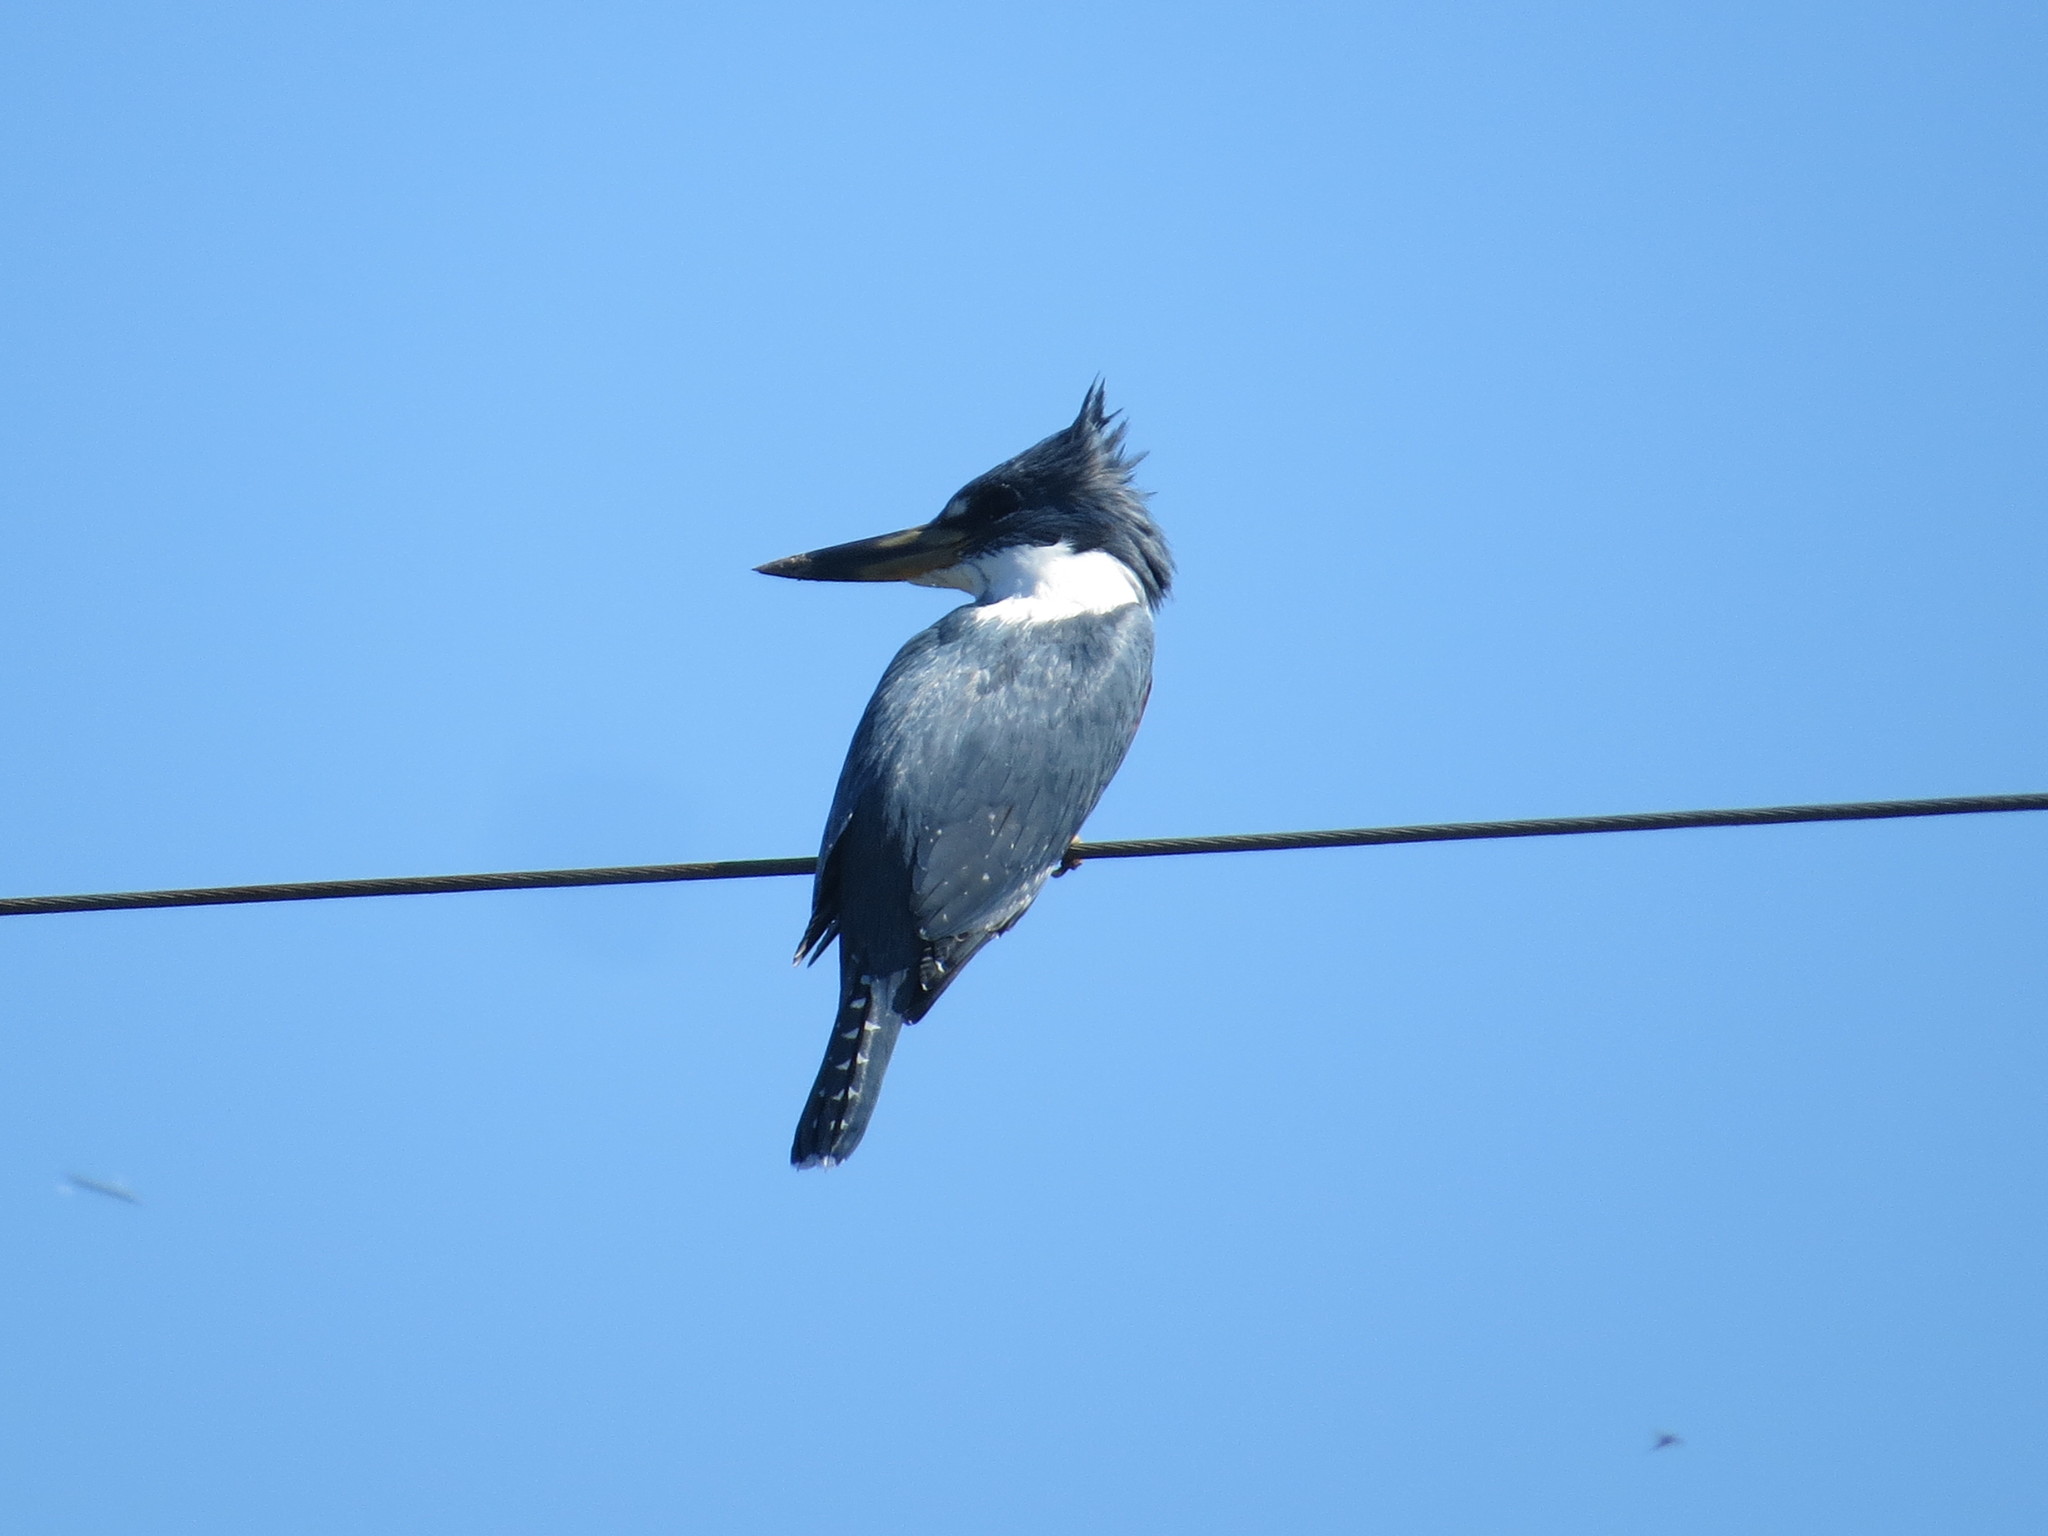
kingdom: Animalia
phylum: Chordata
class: Aves
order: Coraciiformes
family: Alcedinidae
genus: Megaceryle
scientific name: Megaceryle torquata
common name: Ringed kingfisher
